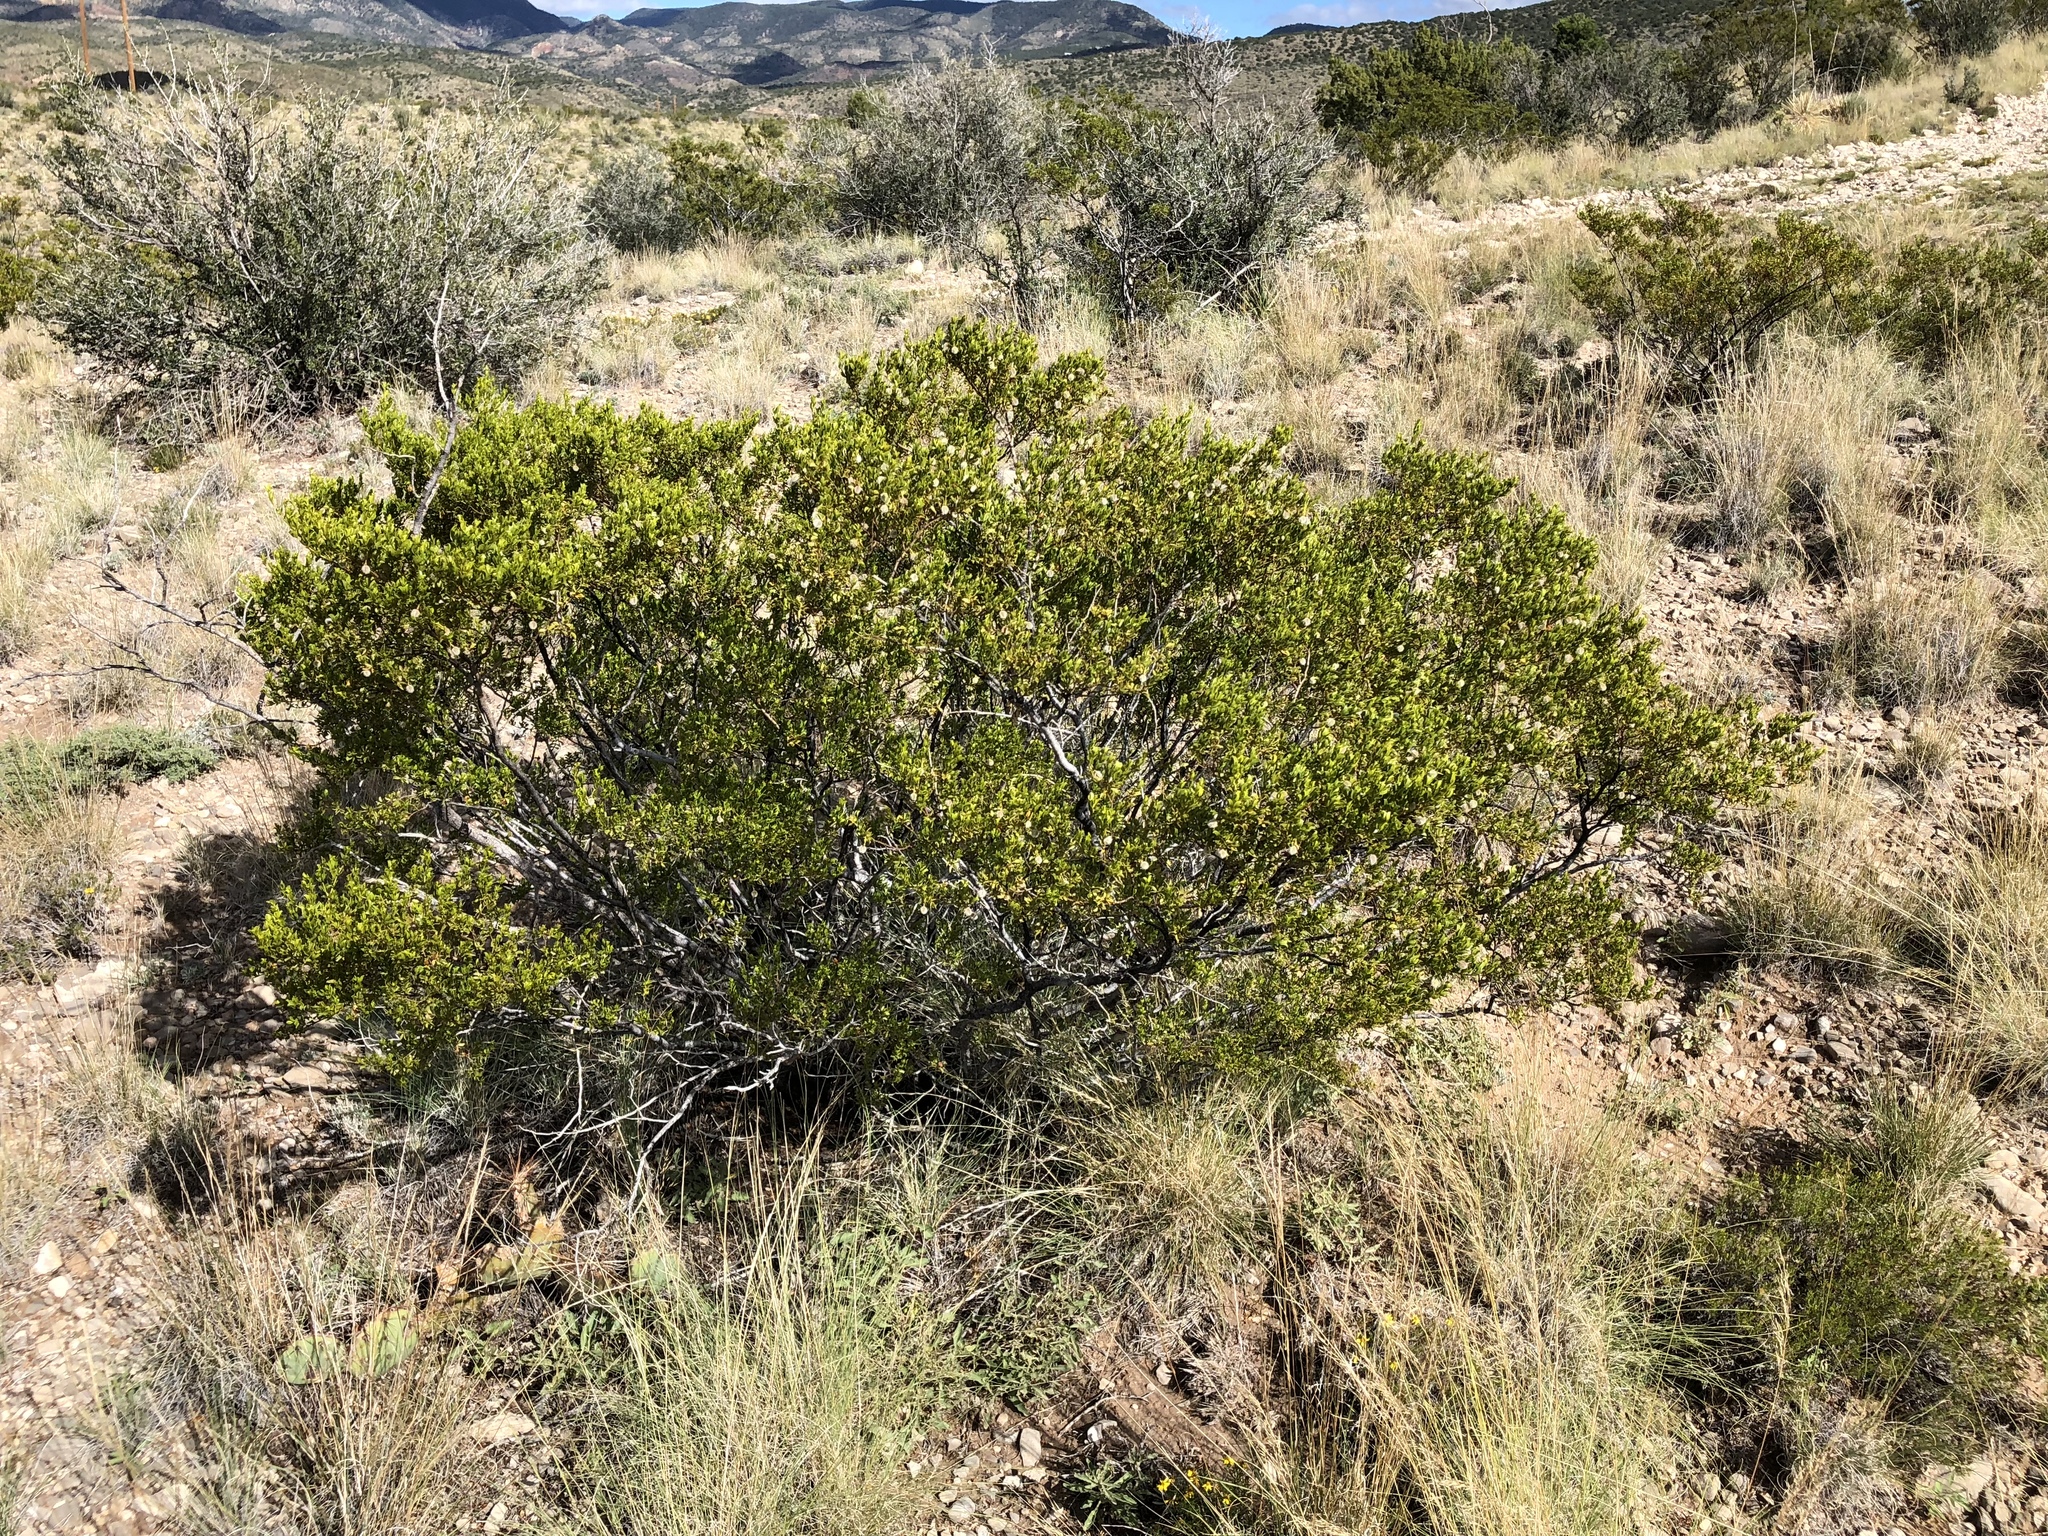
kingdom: Plantae
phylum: Tracheophyta
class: Magnoliopsida
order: Zygophyllales
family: Zygophyllaceae
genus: Larrea
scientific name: Larrea tridentata
